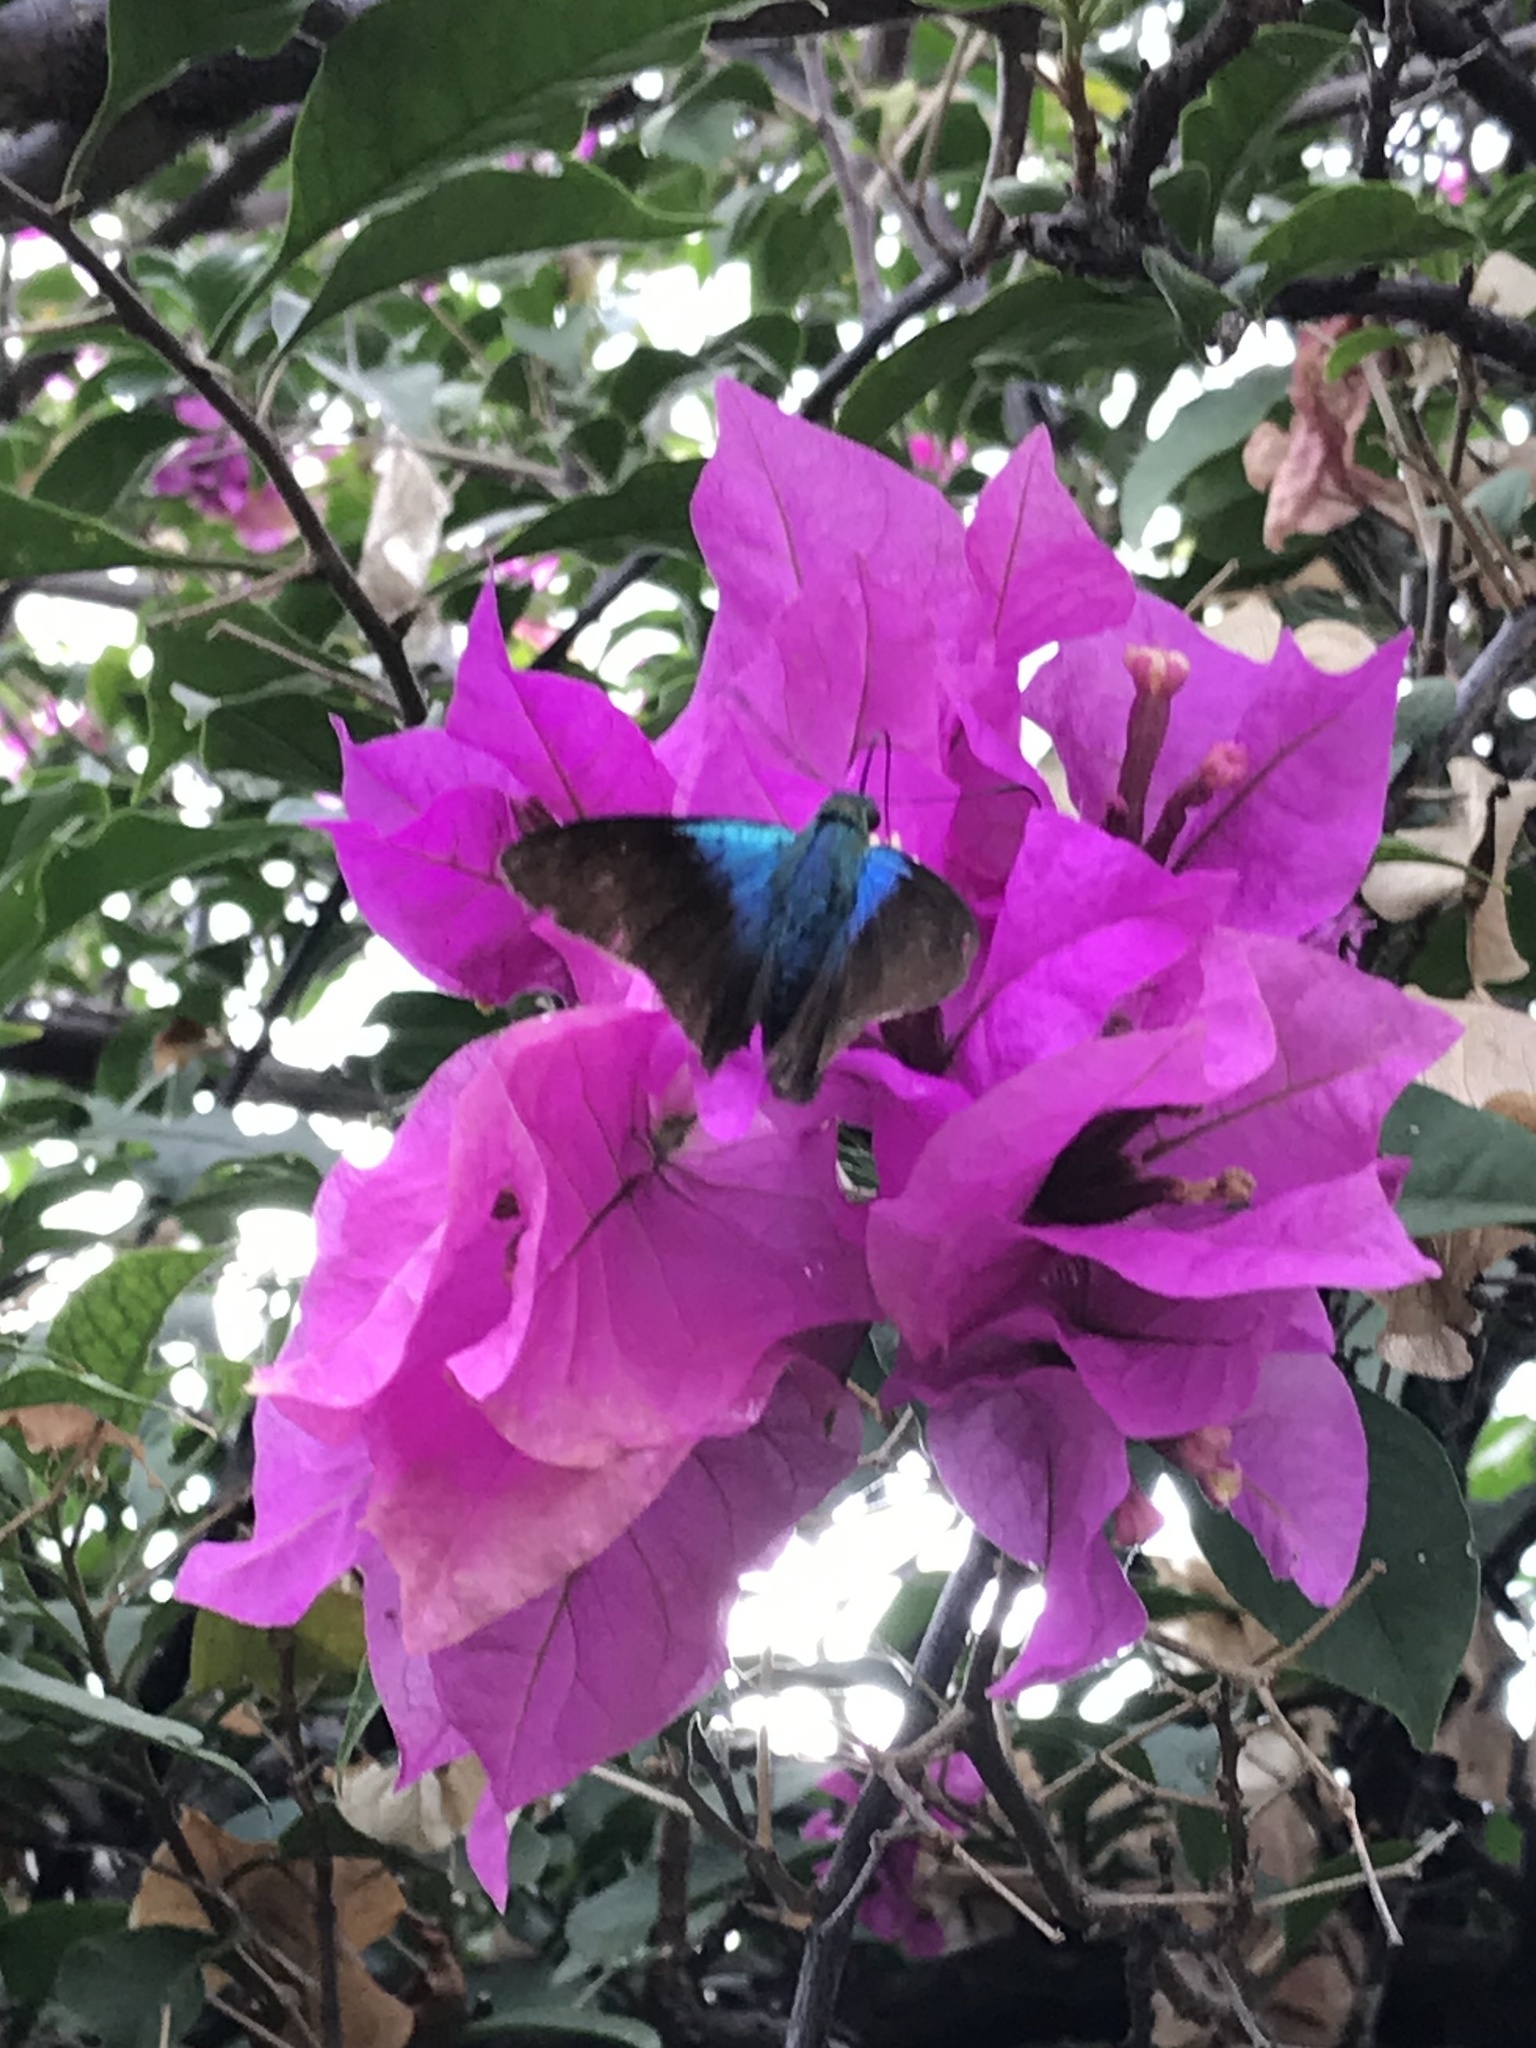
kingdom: Animalia
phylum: Arthropoda
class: Insecta
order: Lepidoptera
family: Hesperiidae
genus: Astraptes
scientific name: Astraptes alector
